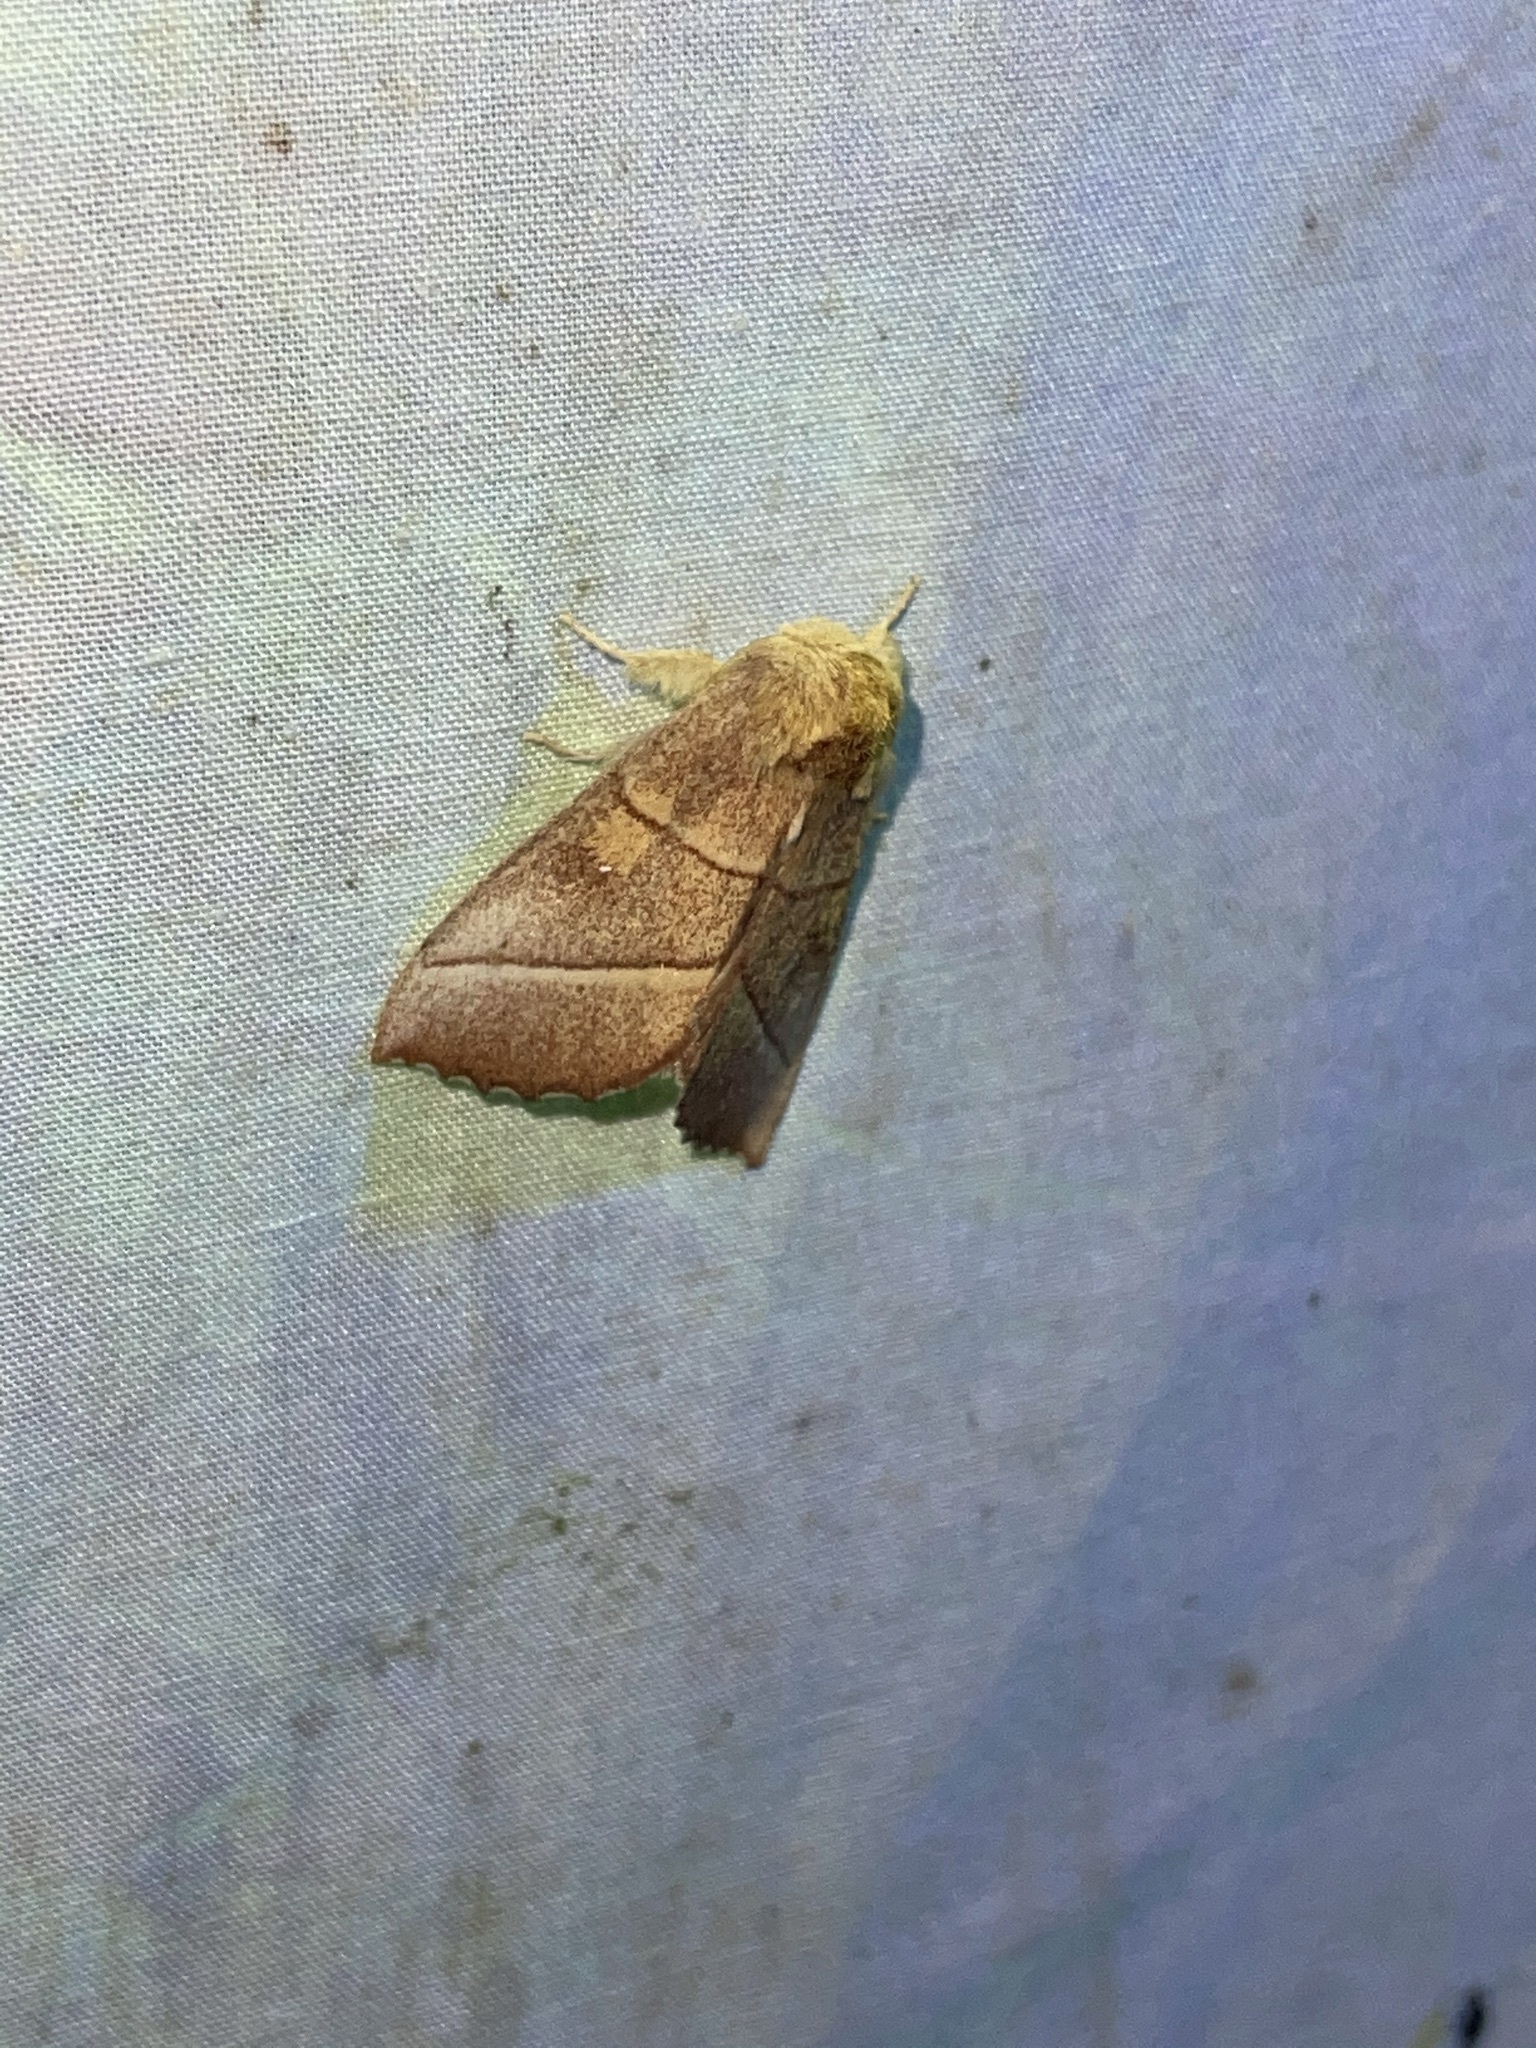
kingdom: Animalia
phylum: Arthropoda
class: Insecta
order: Lepidoptera
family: Notodontidae
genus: Nadata
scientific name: Nadata gibbosa
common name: White-dotted prominent
